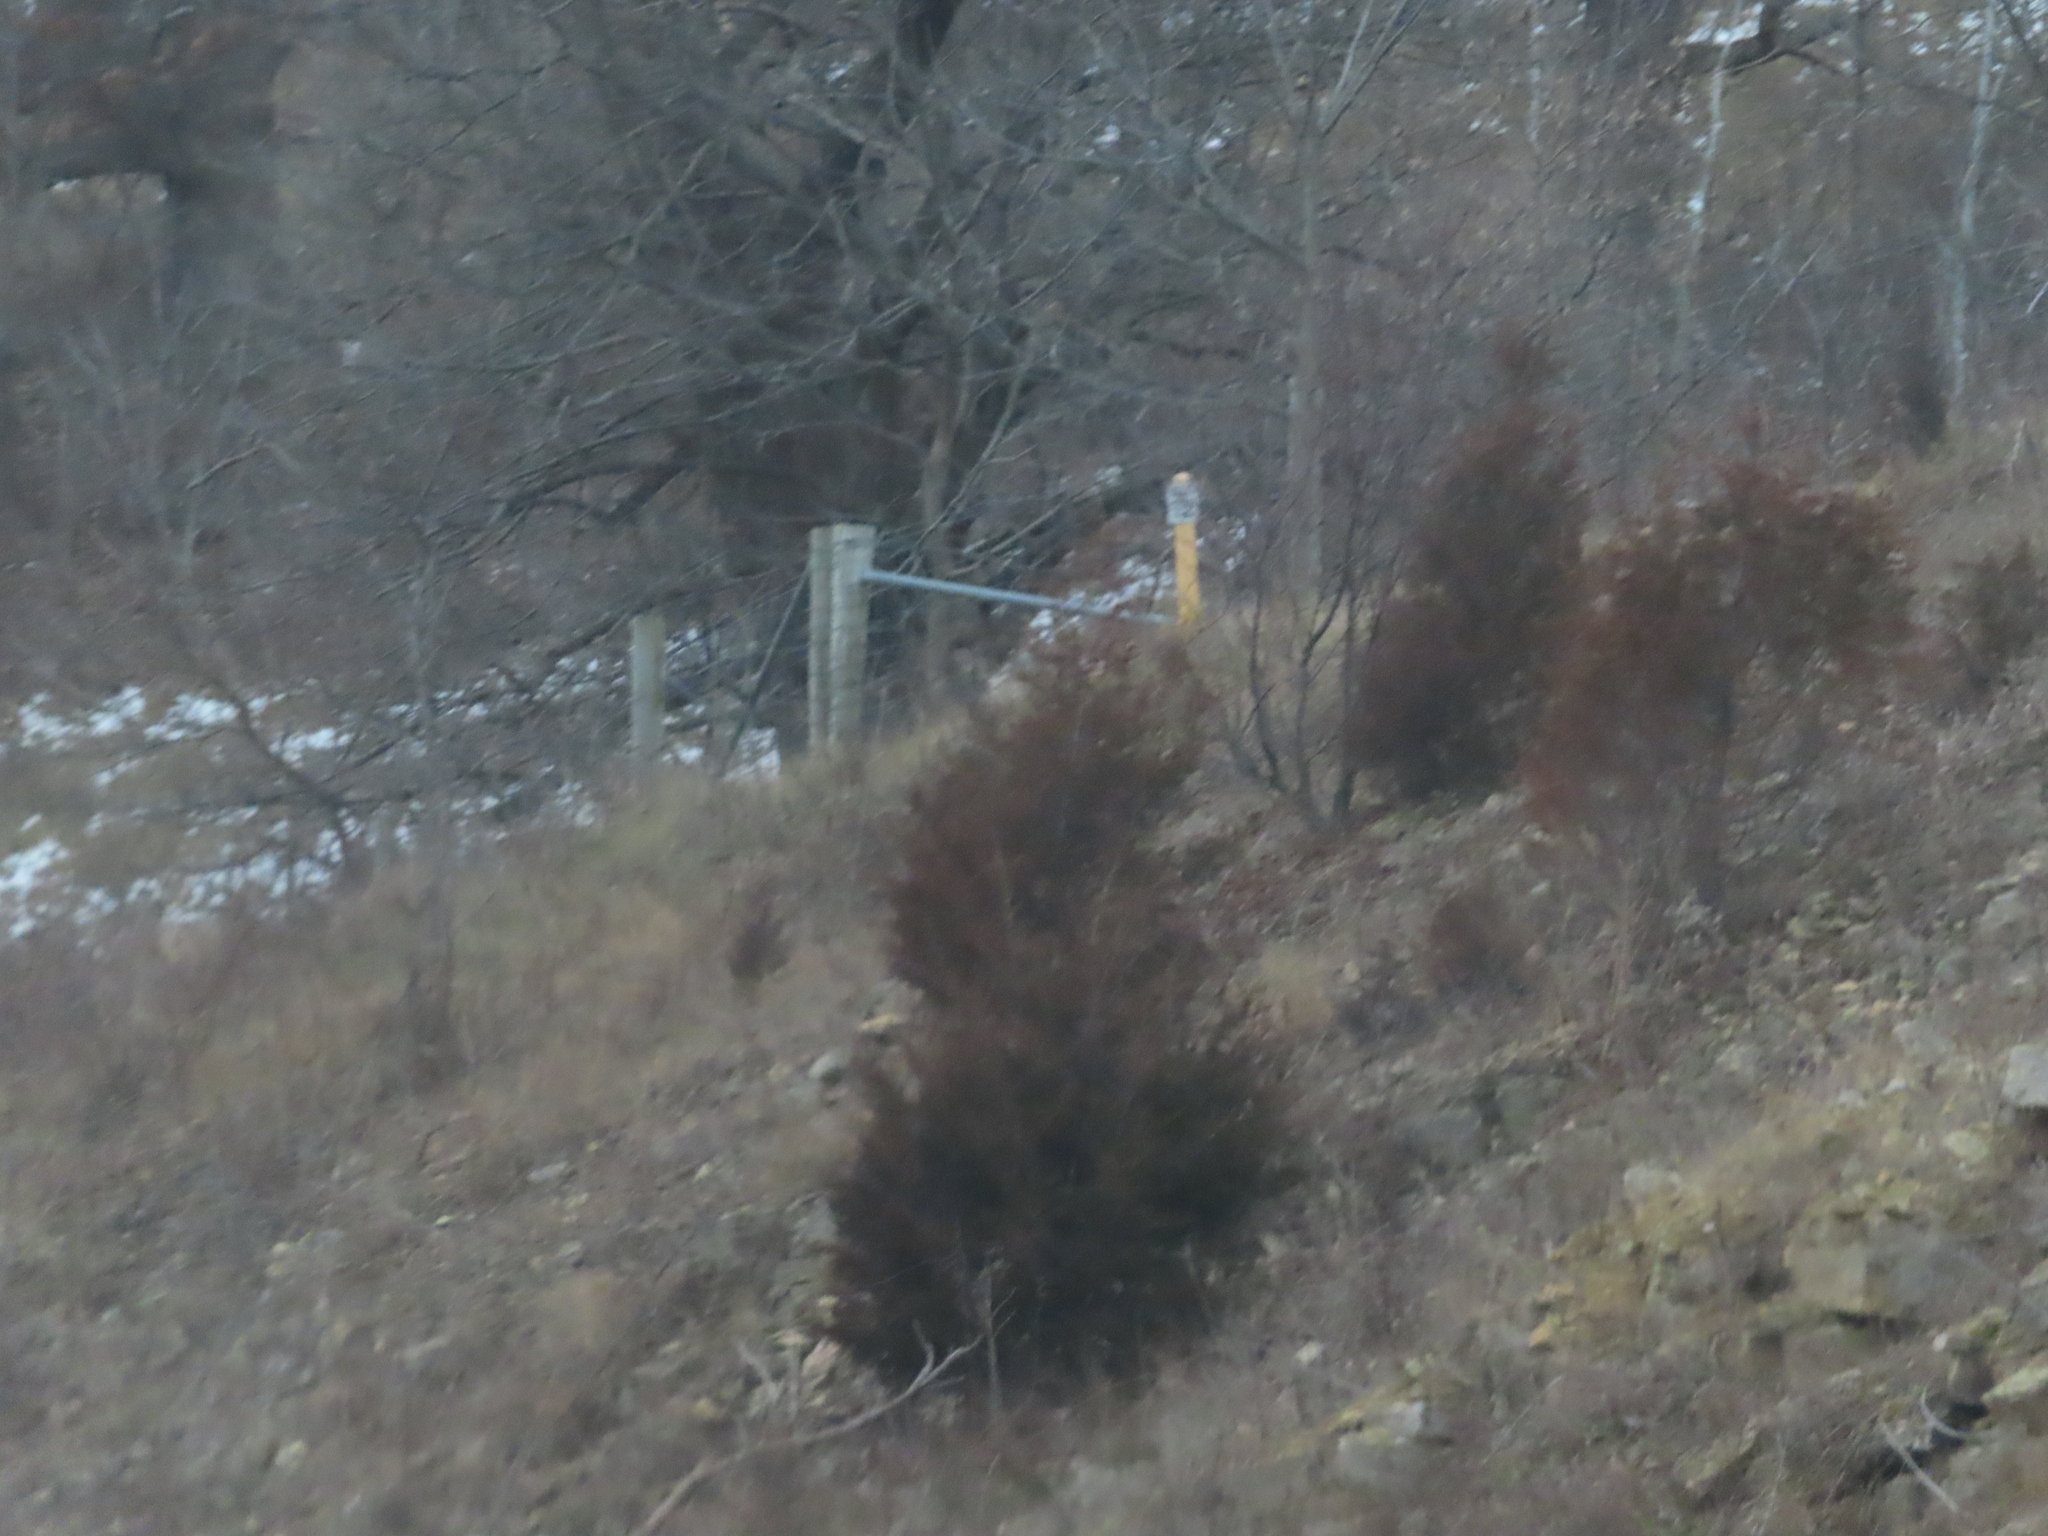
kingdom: Plantae
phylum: Tracheophyta
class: Pinopsida
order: Pinales
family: Cupressaceae
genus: Juniperus
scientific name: Juniperus virginiana
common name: Red juniper
